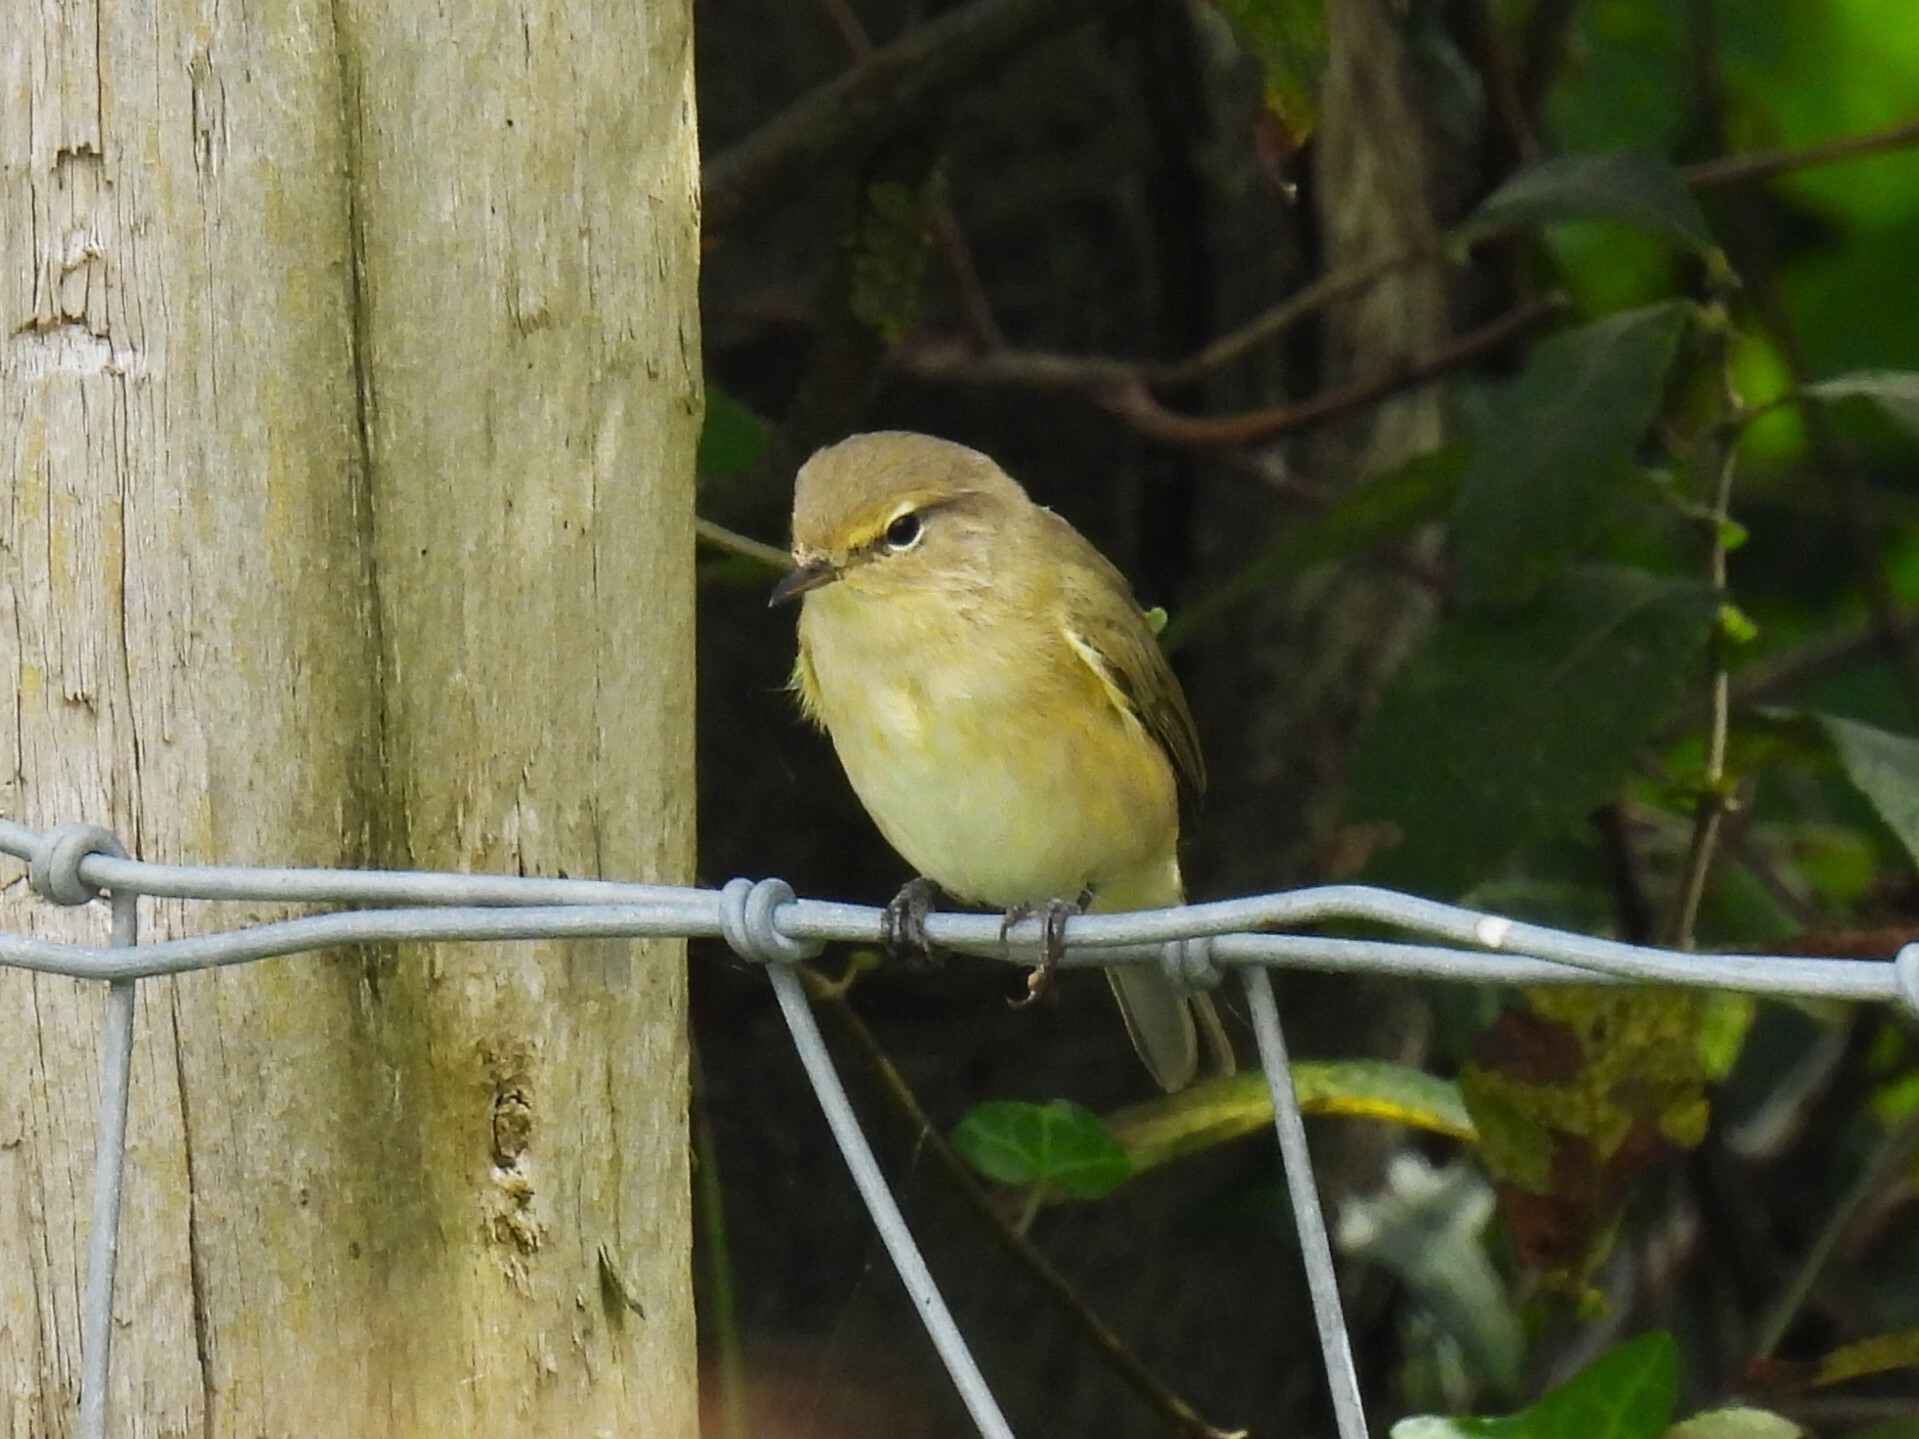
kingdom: Animalia
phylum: Chordata
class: Aves
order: Passeriformes
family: Phylloscopidae
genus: Phylloscopus
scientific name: Phylloscopus collybita
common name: Common chiffchaff
